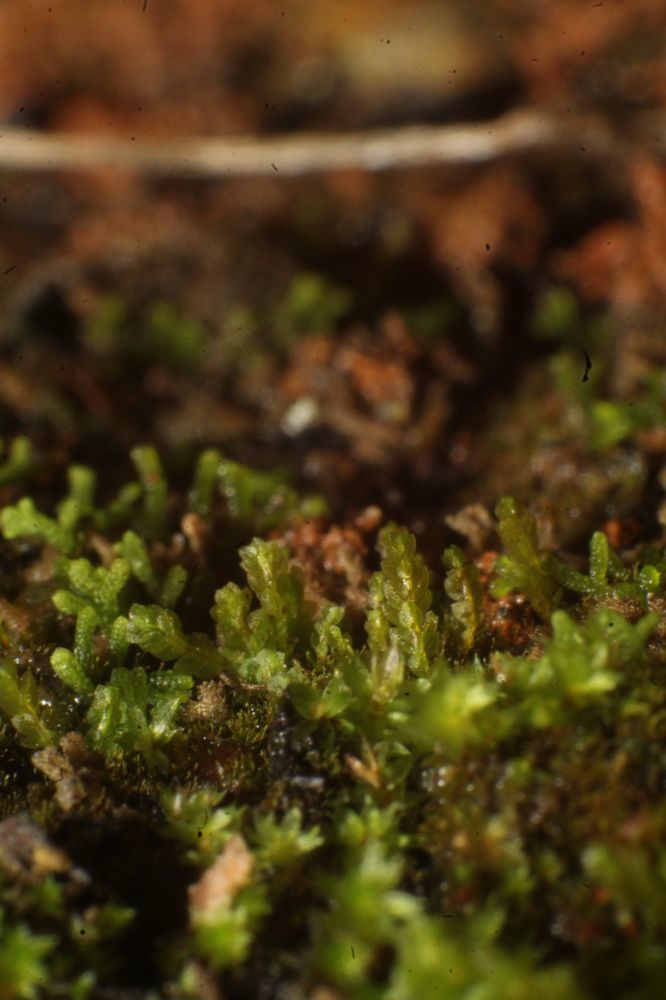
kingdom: Plantae
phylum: Bryophyta
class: Bryopsida
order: Pottiales
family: Mitteniaceae
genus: Mittenia
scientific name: Mittenia plumula
